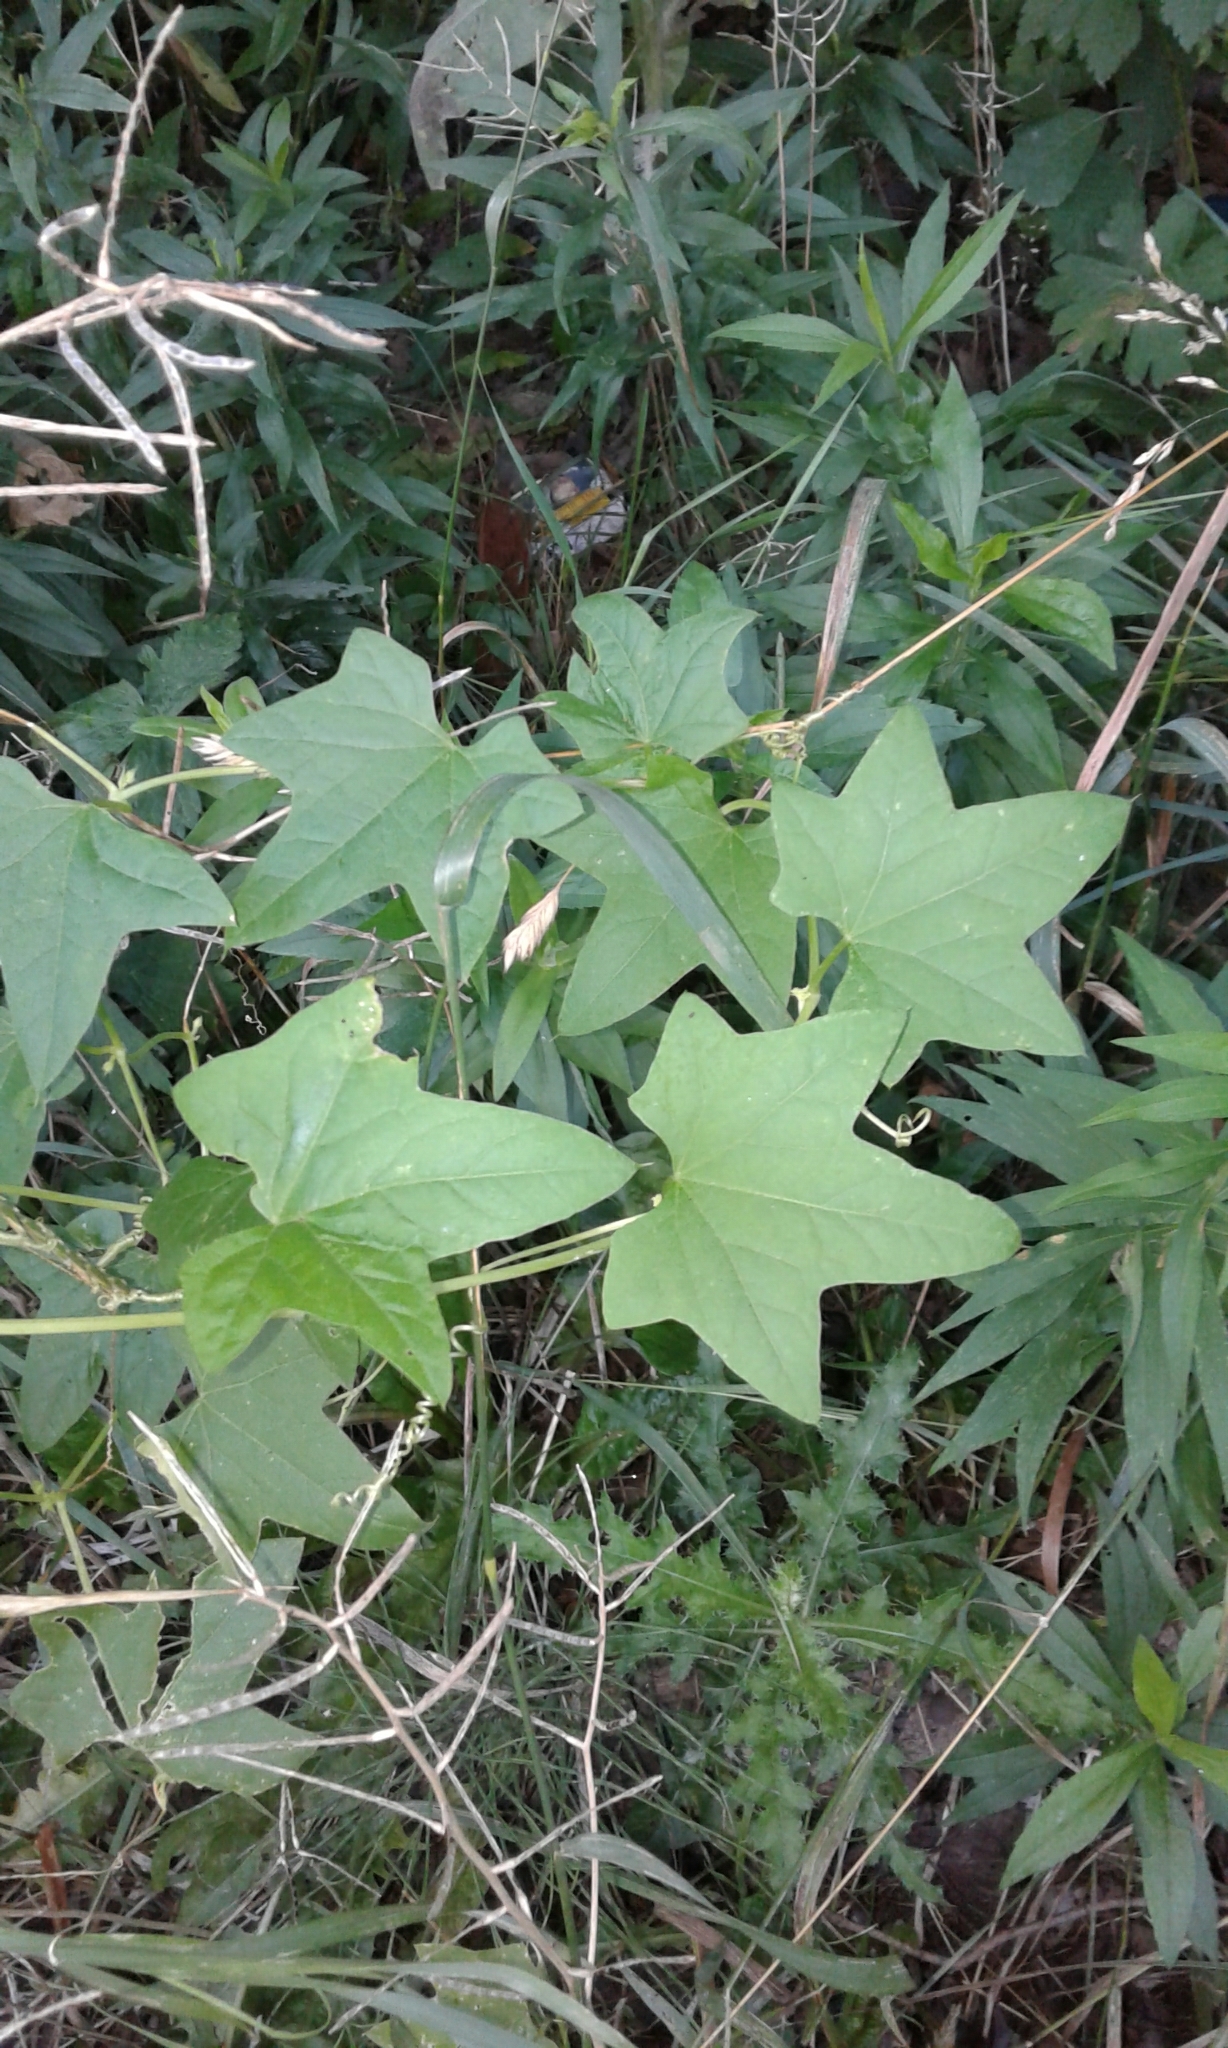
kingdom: Plantae
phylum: Tracheophyta
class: Magnoliopsida
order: Cucurbitales
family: Cucurbitaceae
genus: Echinocystis
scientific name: Echinocystis lobata
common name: Wild cucumber
